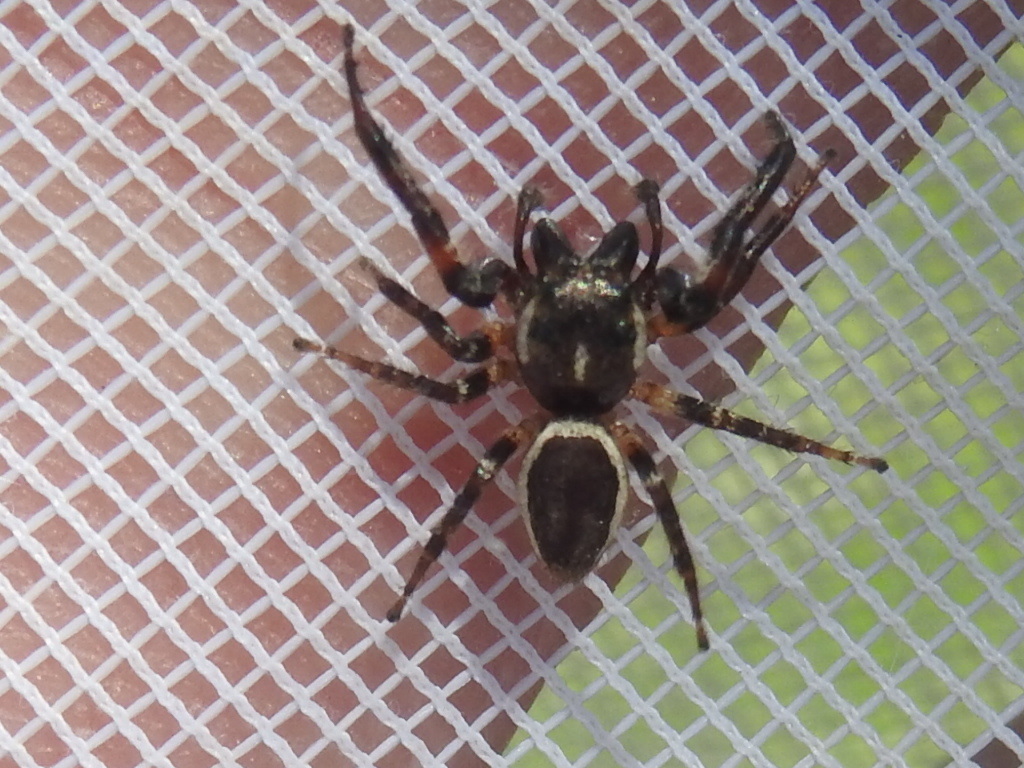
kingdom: Animalia
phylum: Arthropoda
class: Arachnida
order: Araneae
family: Salticidae
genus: Eris
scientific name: Eris militaris
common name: Bronze jumper
